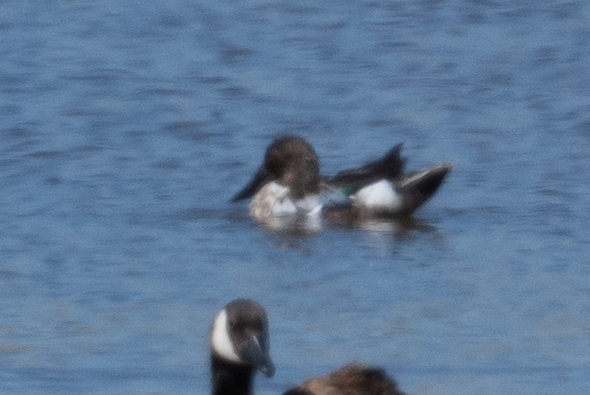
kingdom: Animalia
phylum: Chordata
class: Aves
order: Anseriformes
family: Anatidae
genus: Spatula
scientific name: Spatula clypeata
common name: Northern shoveler
